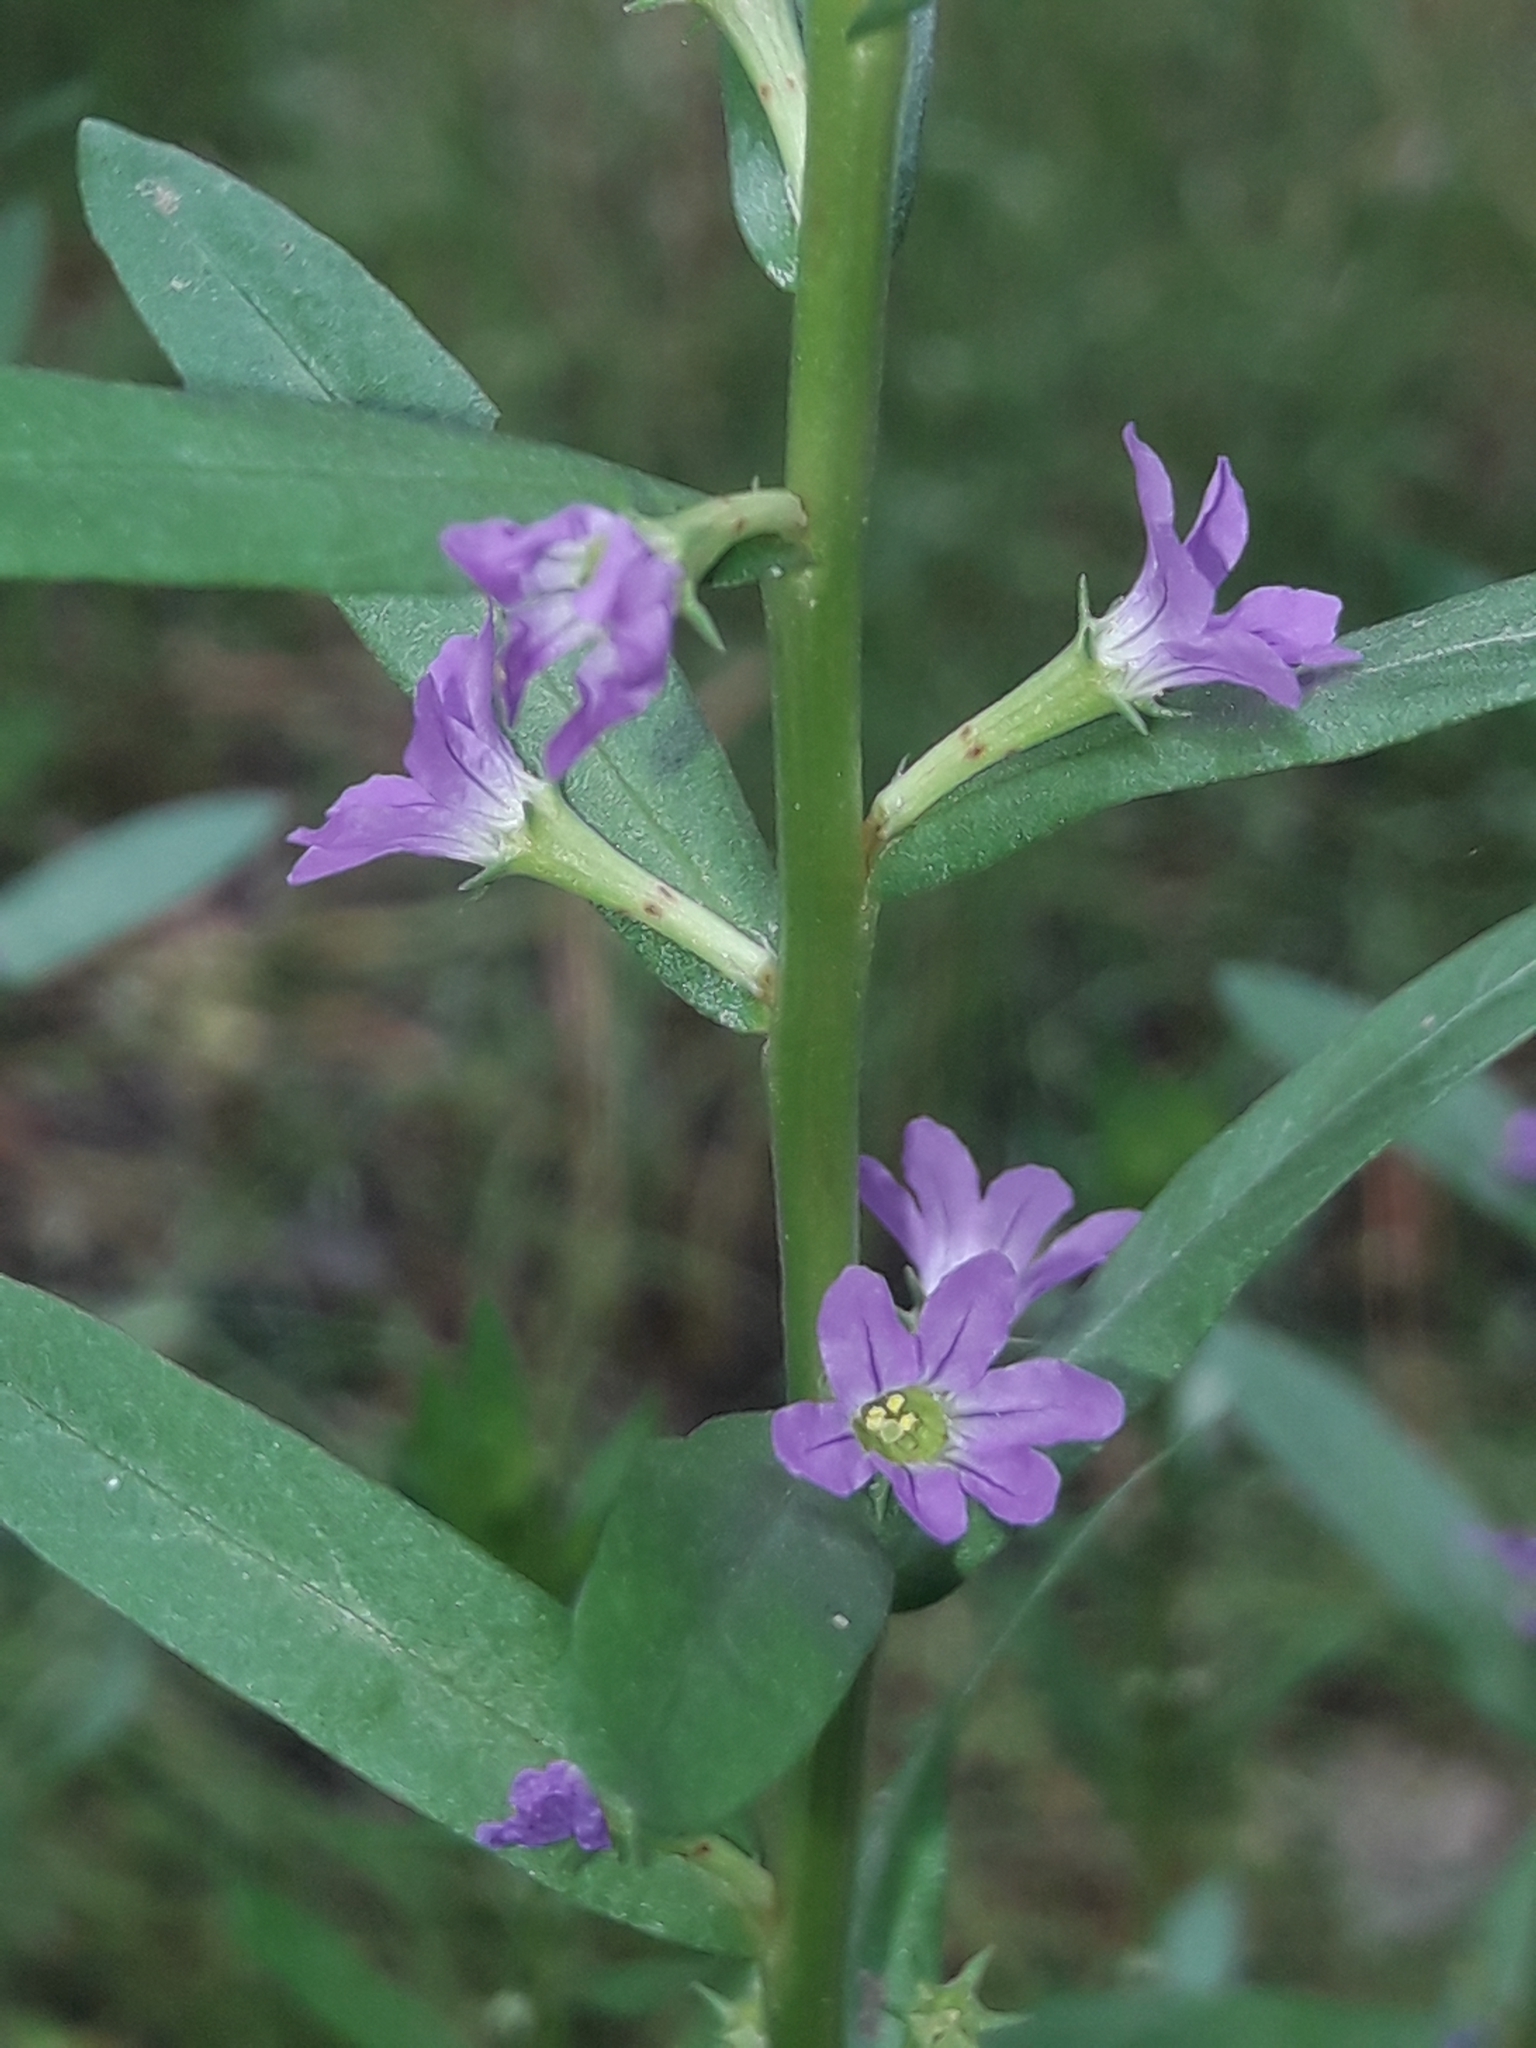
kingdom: Plantae
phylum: Tracheophyta
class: Magnoliopsida
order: Myrtales
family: Lythraceae
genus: Lythrum
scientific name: Lythrum hyssopifolia
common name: Grass-poly
